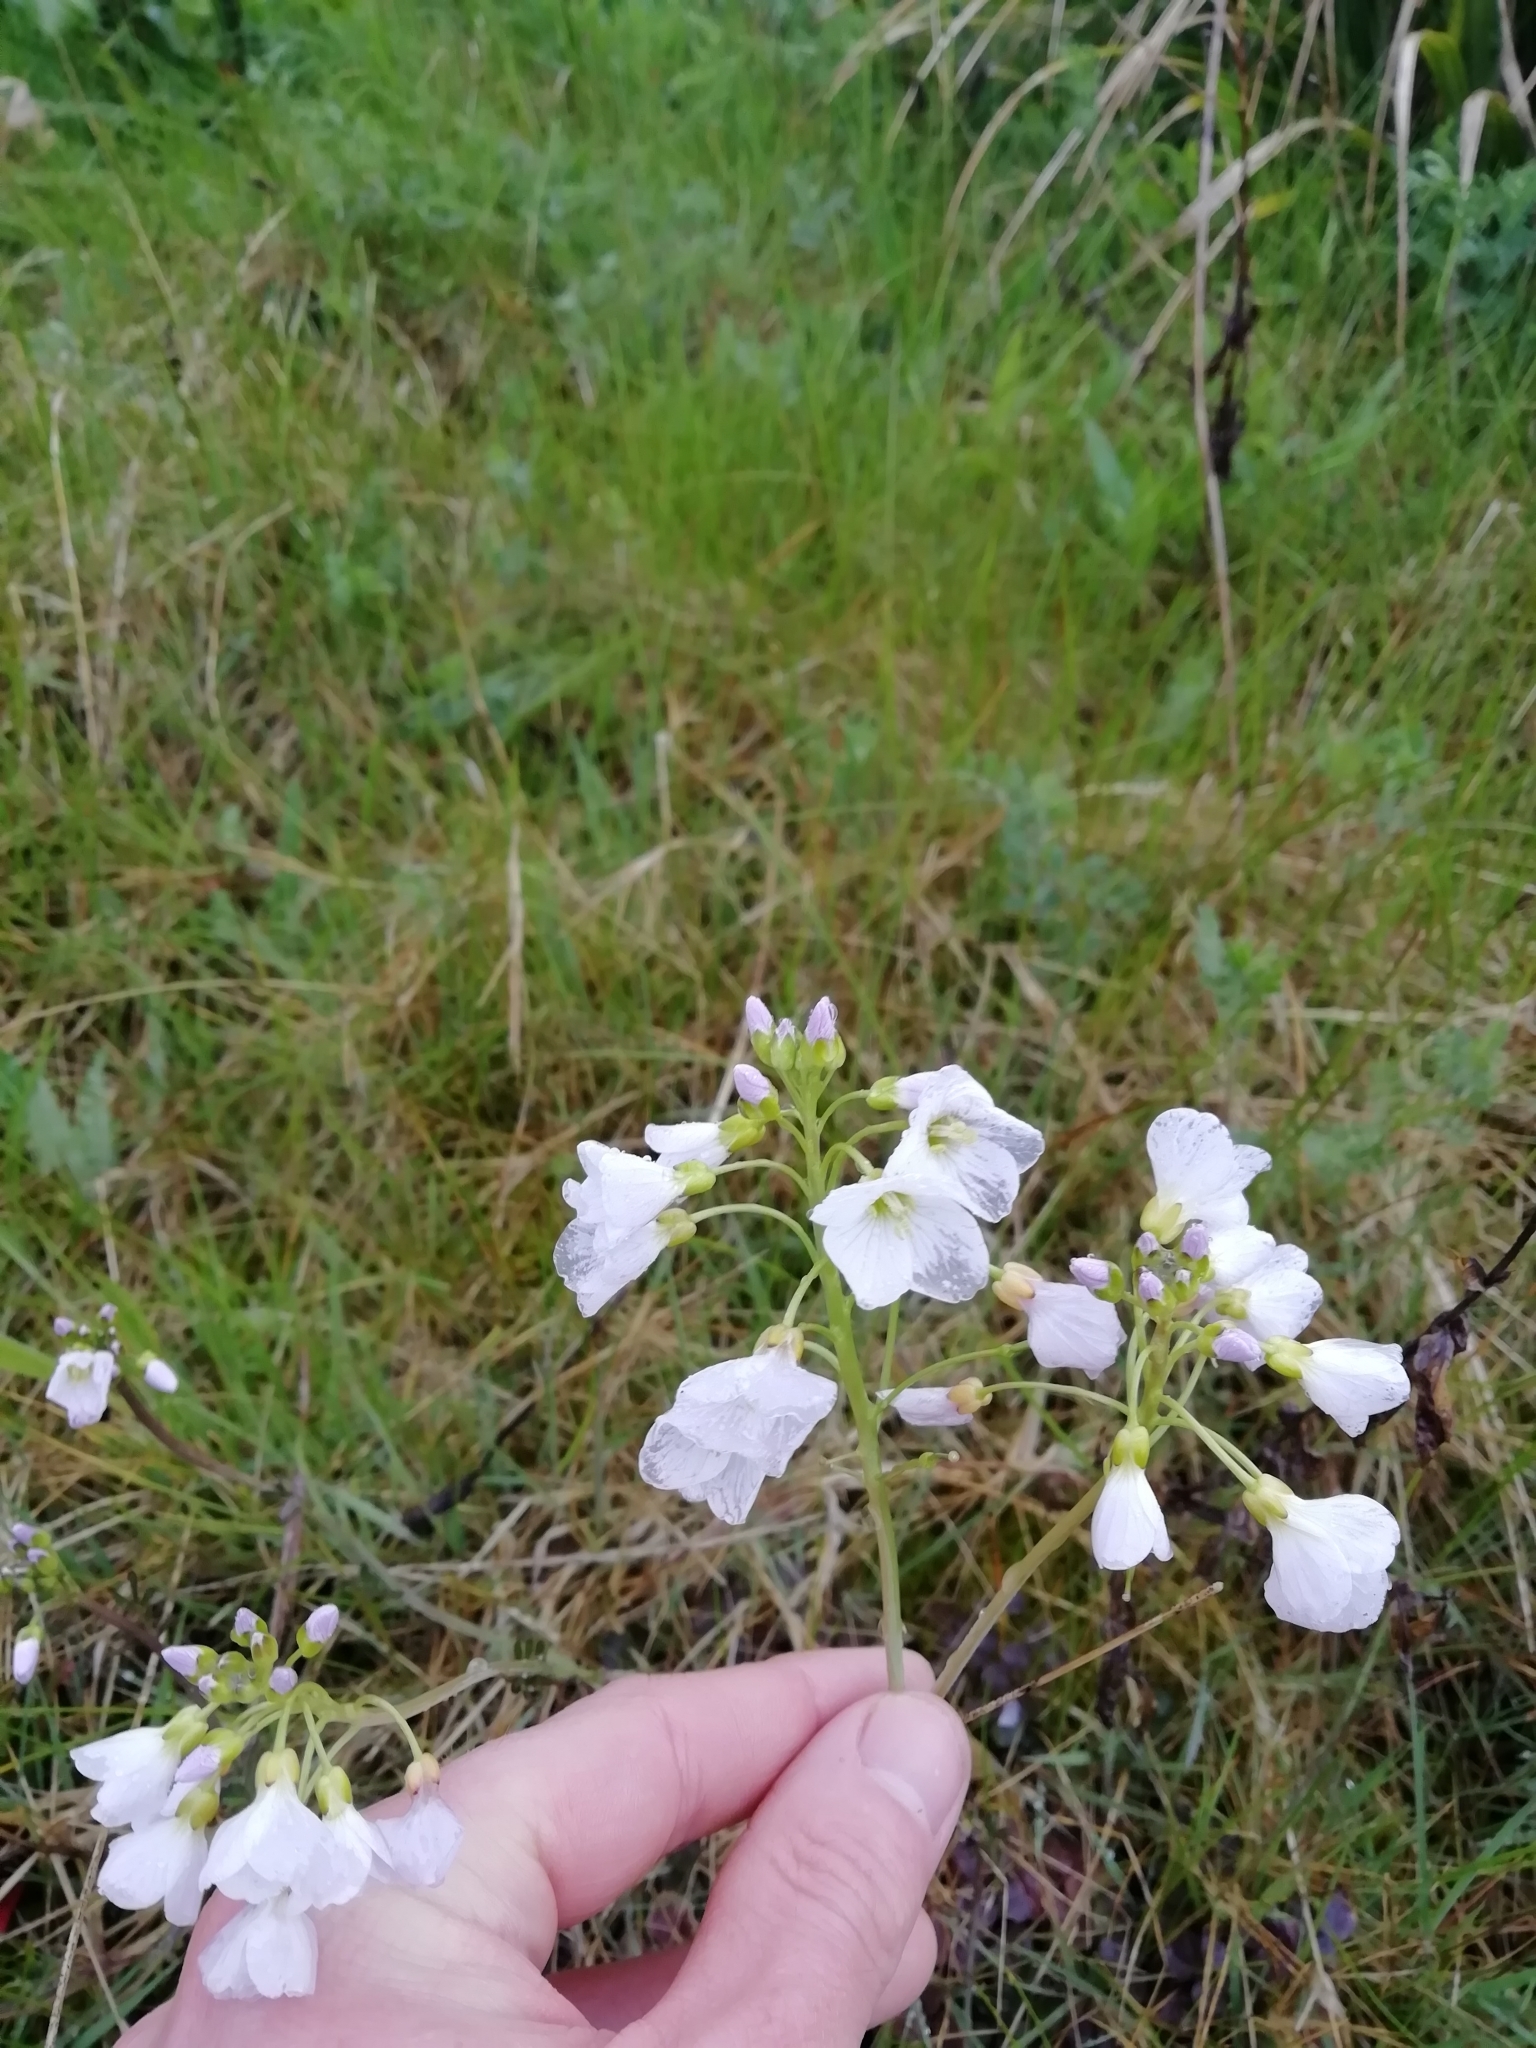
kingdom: Plantae
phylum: Tracheophyta
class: Magnoliopsida
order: Brassicales
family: Brassicaceae
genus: Cardamine
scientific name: Cardamine pratensis
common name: Cuckoo flower
